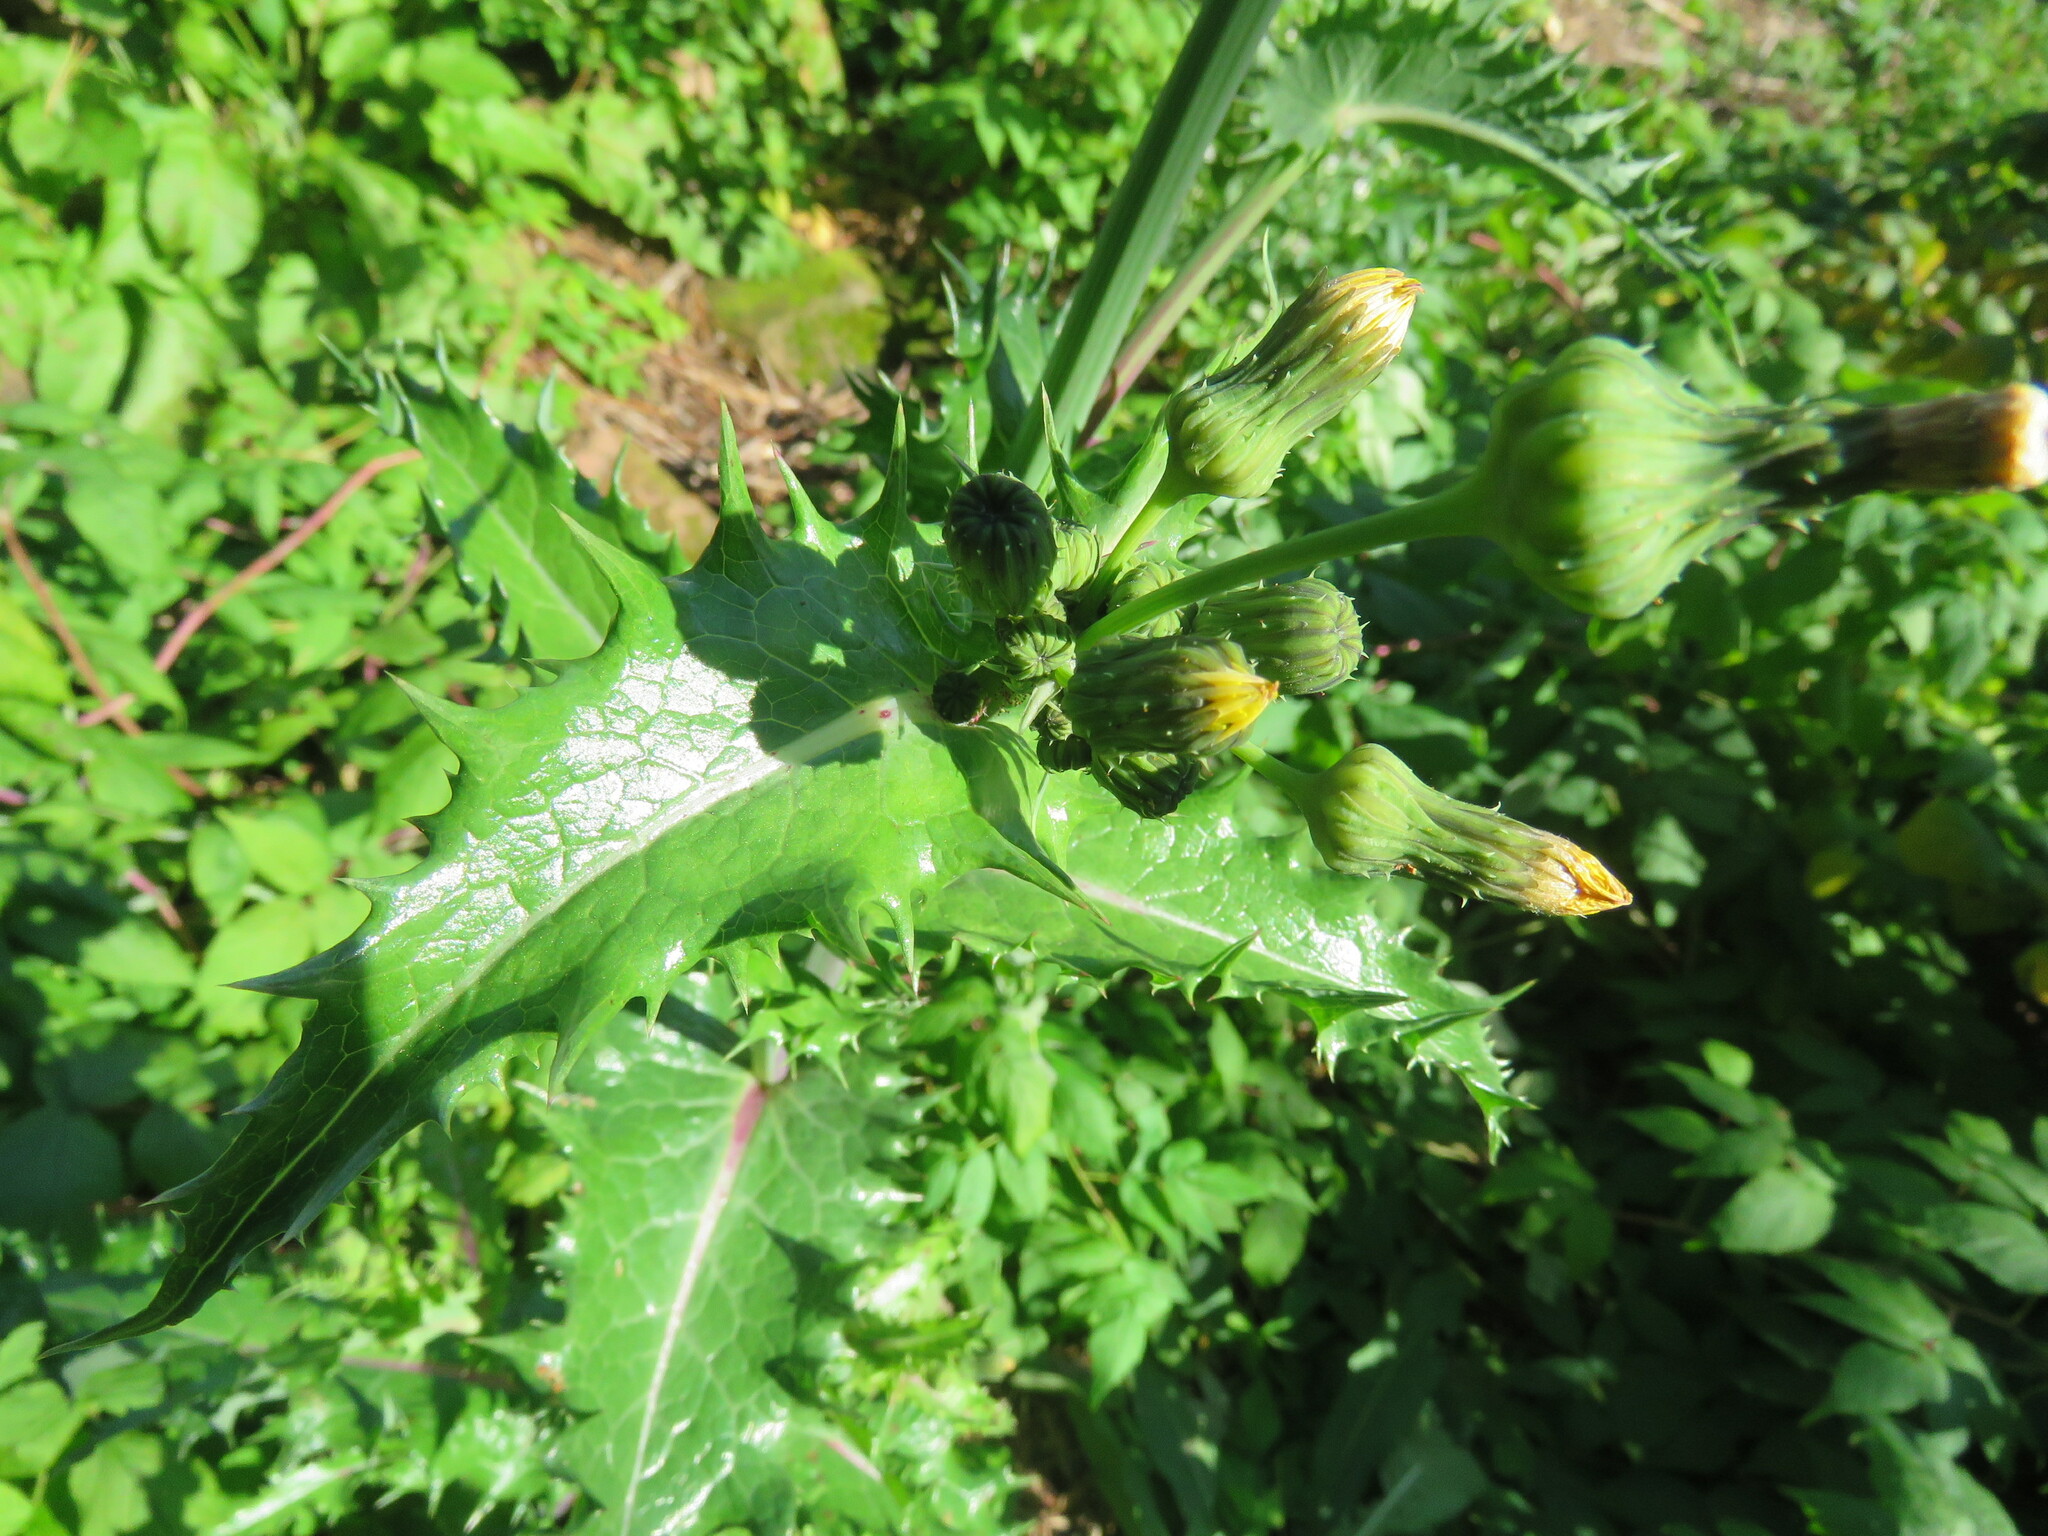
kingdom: Plantae
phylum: Tracheophyta
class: Magnoliopsida
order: Asterales
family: Asteraceae
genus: Sonchus
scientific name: Sonchus asper
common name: Prickly sow-thistle
